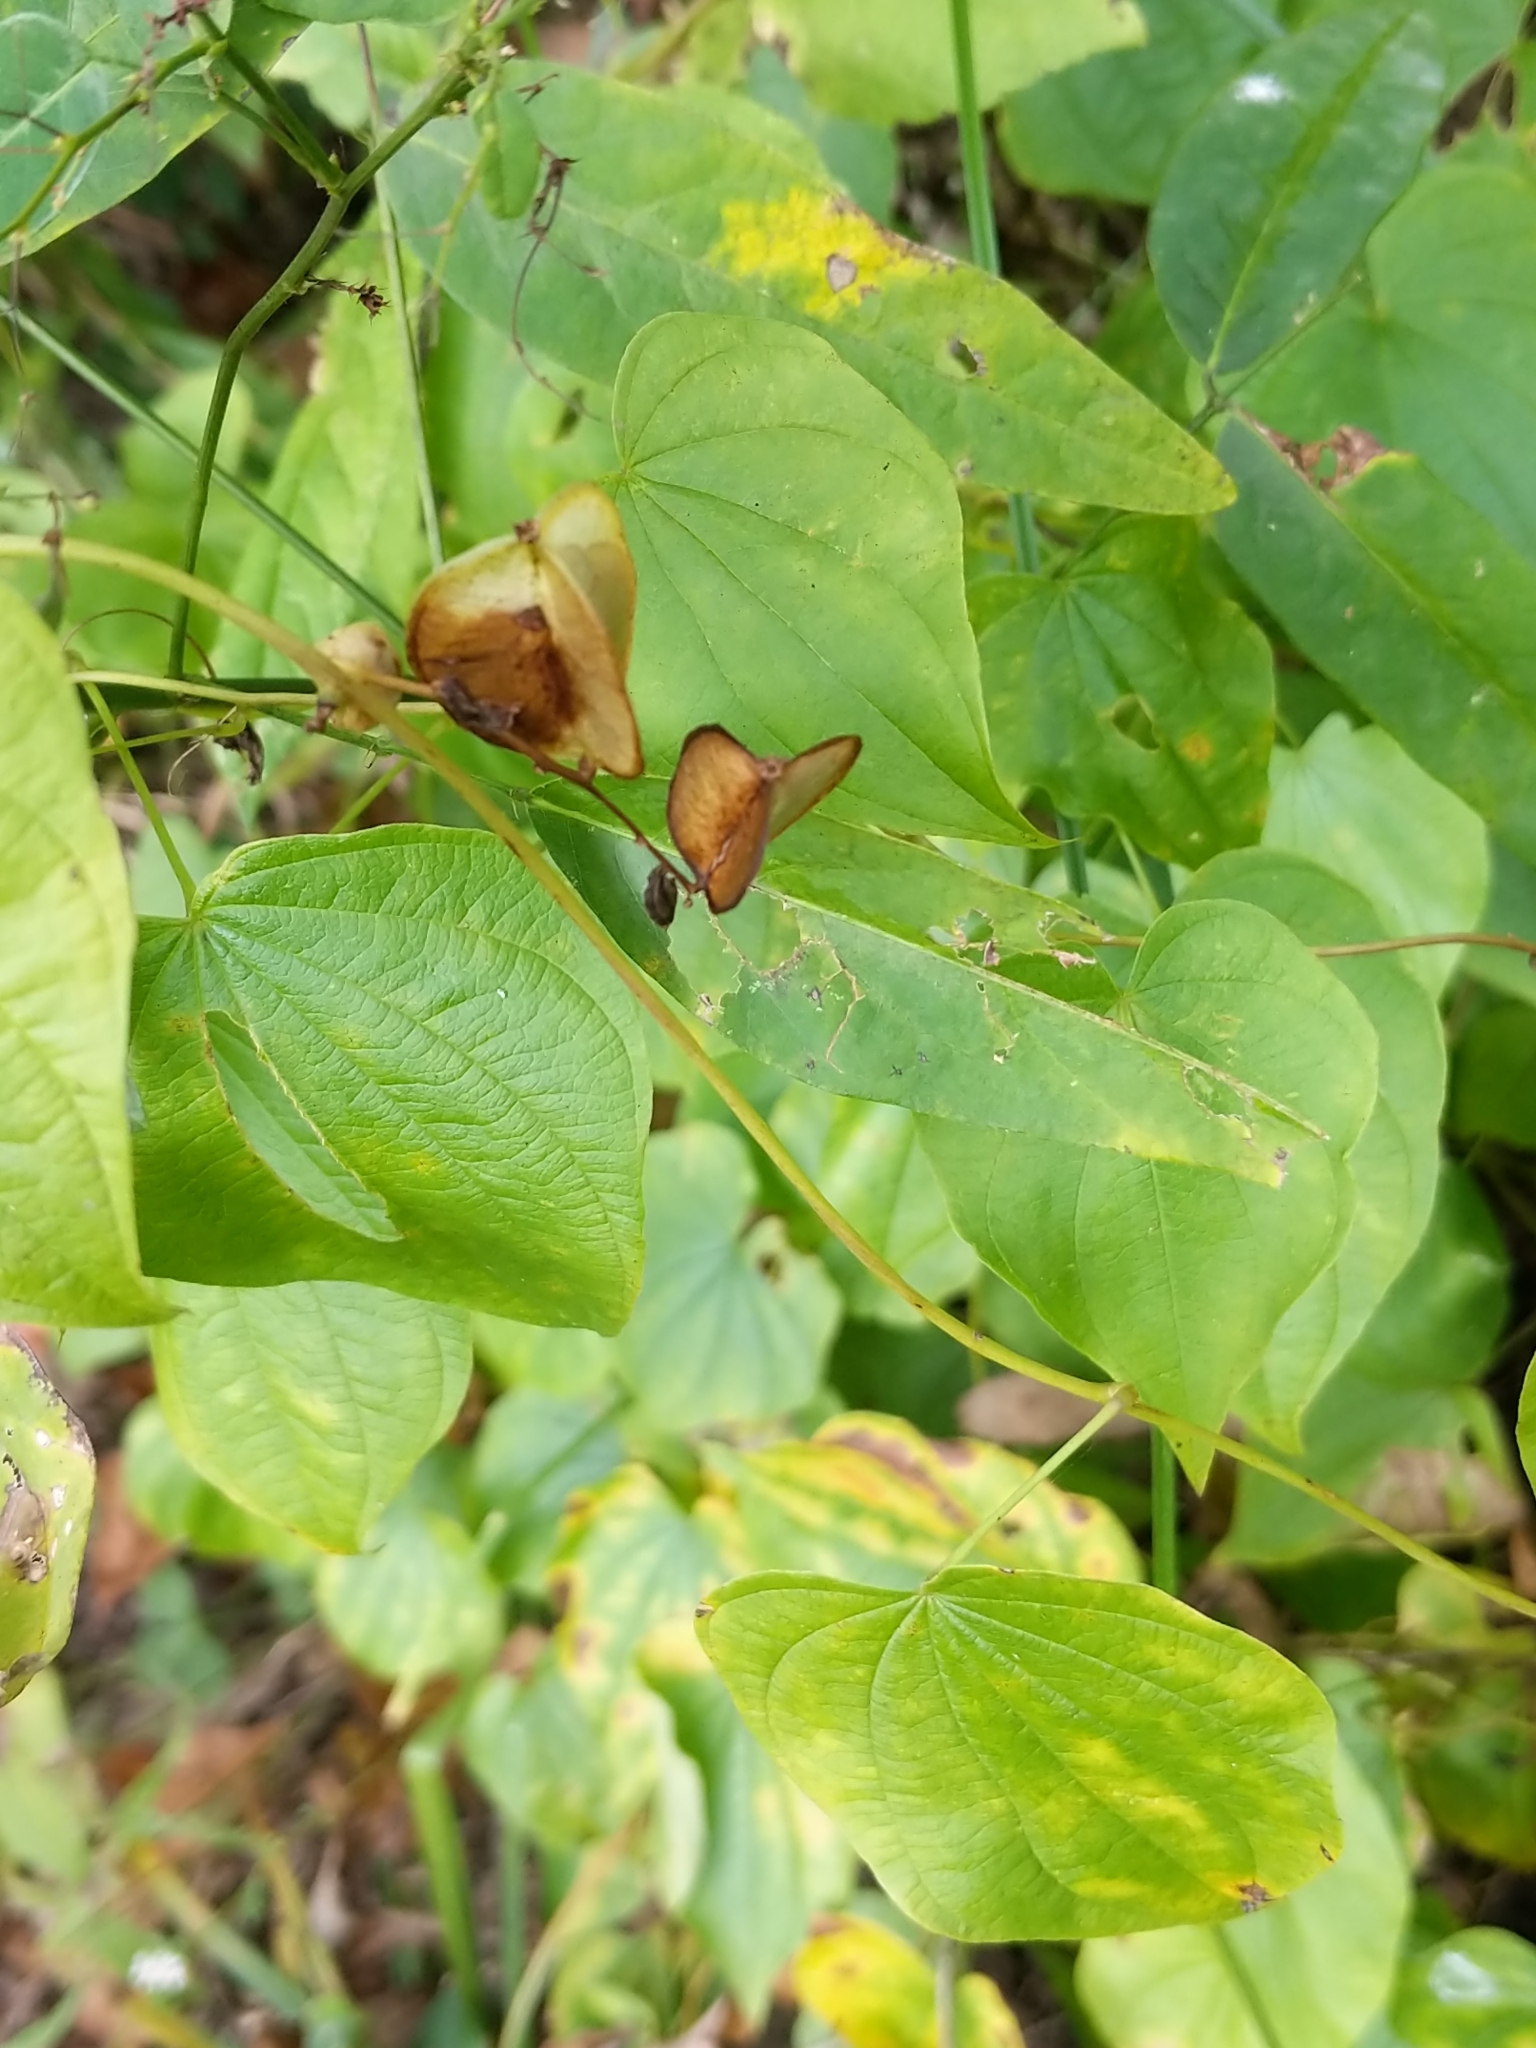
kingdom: Plantae
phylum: Tracheophyta
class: Liliopsida
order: Dioscoreales
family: Dioscoreaceae
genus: Dioscorea
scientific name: Dioscorea villosa
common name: Wild yam
